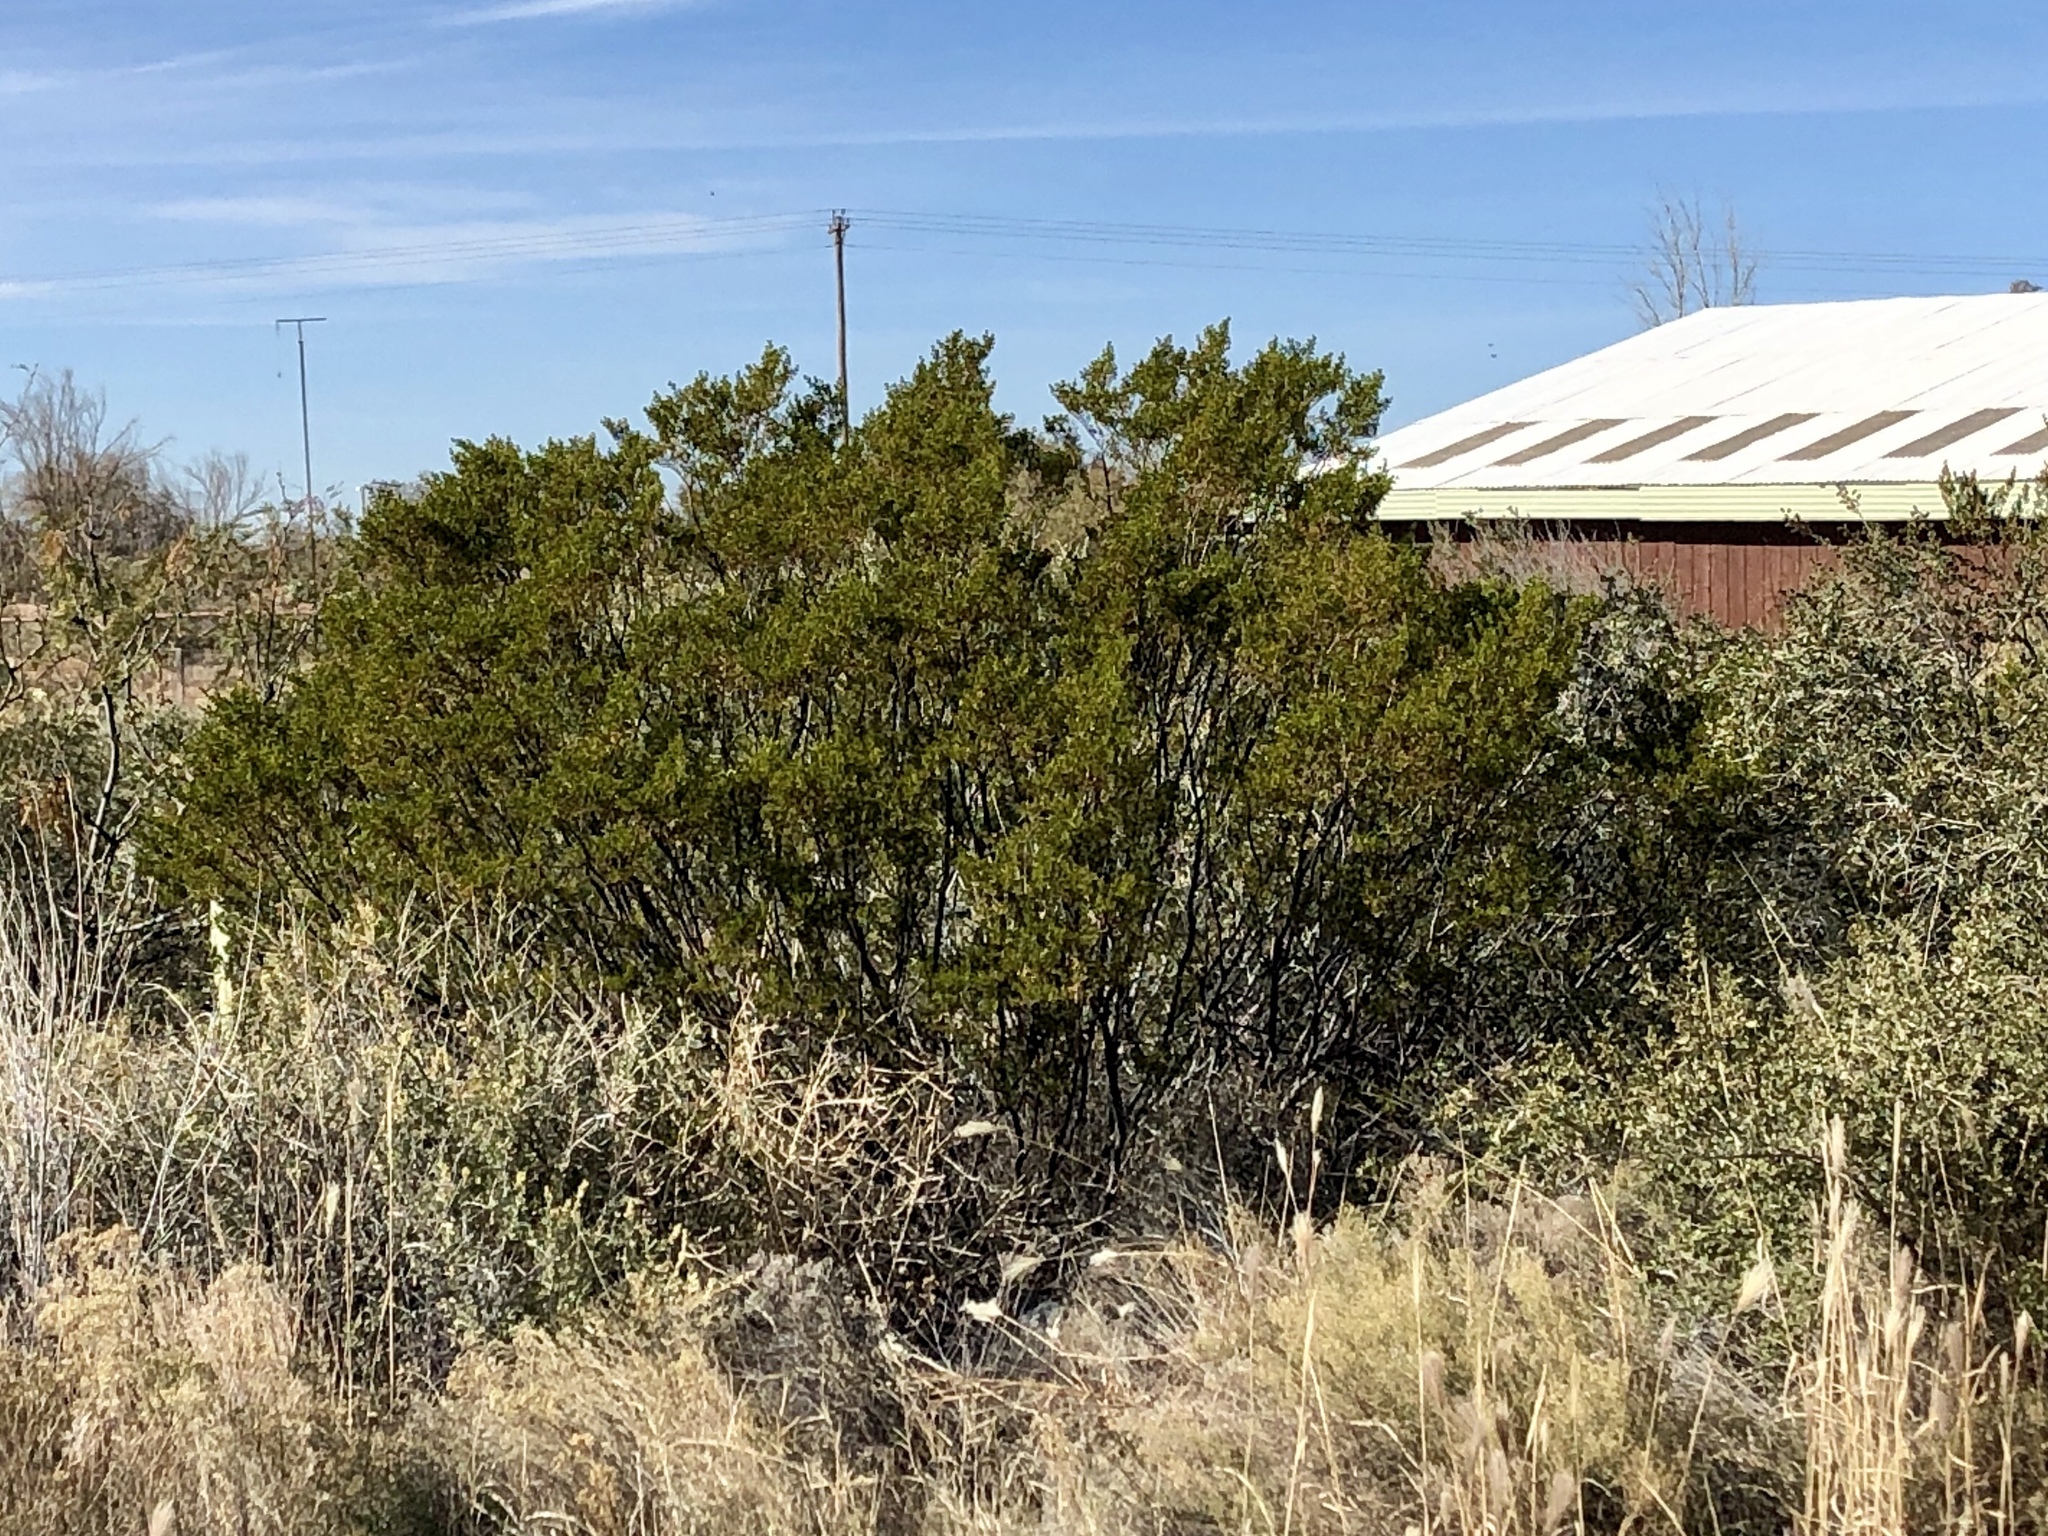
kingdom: Plantae
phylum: Tracheophyta
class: Magnoliopsida
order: Zygophyllales
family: Zygophyllaceae
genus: Larrea
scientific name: Larrea tridentata
